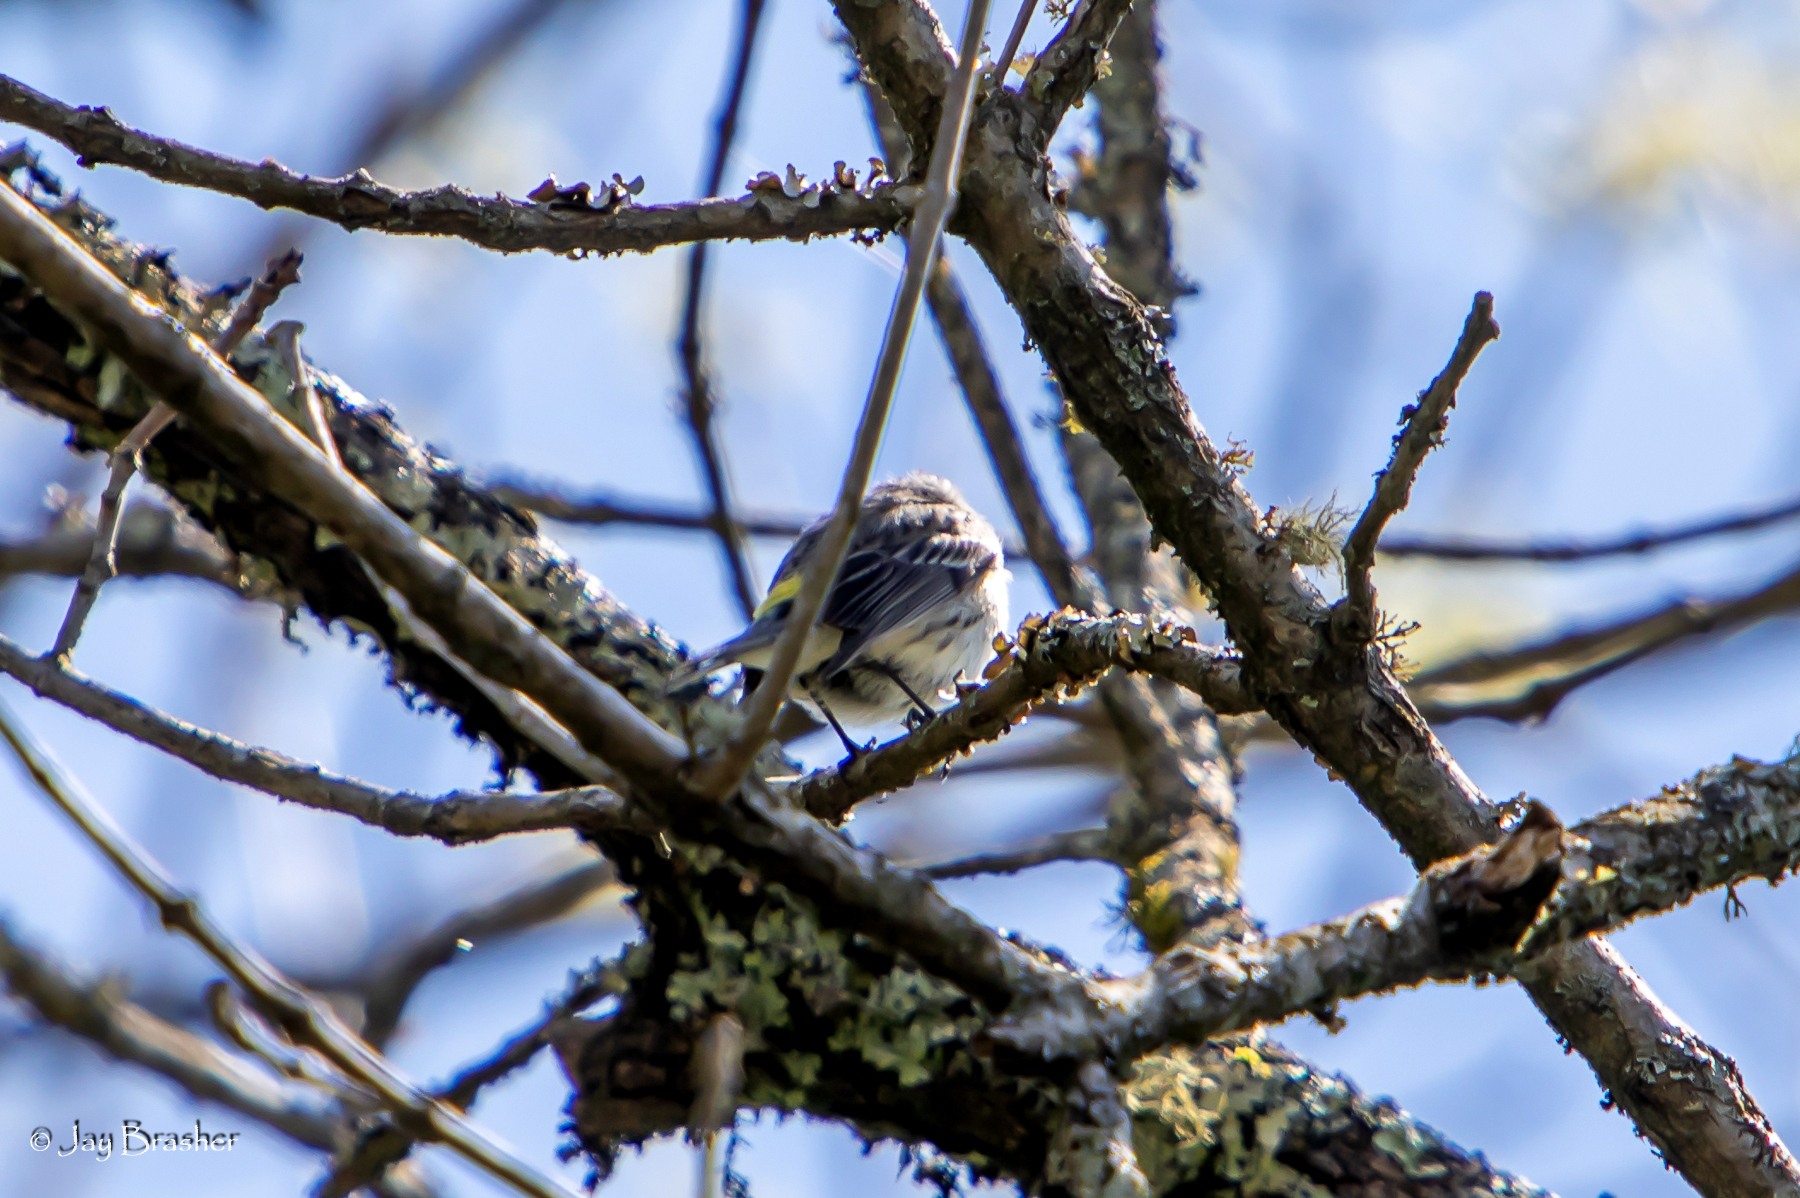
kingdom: Animalia
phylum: Chordata
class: Aves
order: Passeriformes
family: Parulidae
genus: Setophaga
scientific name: Setophaga coronata
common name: Myrtle warbler
